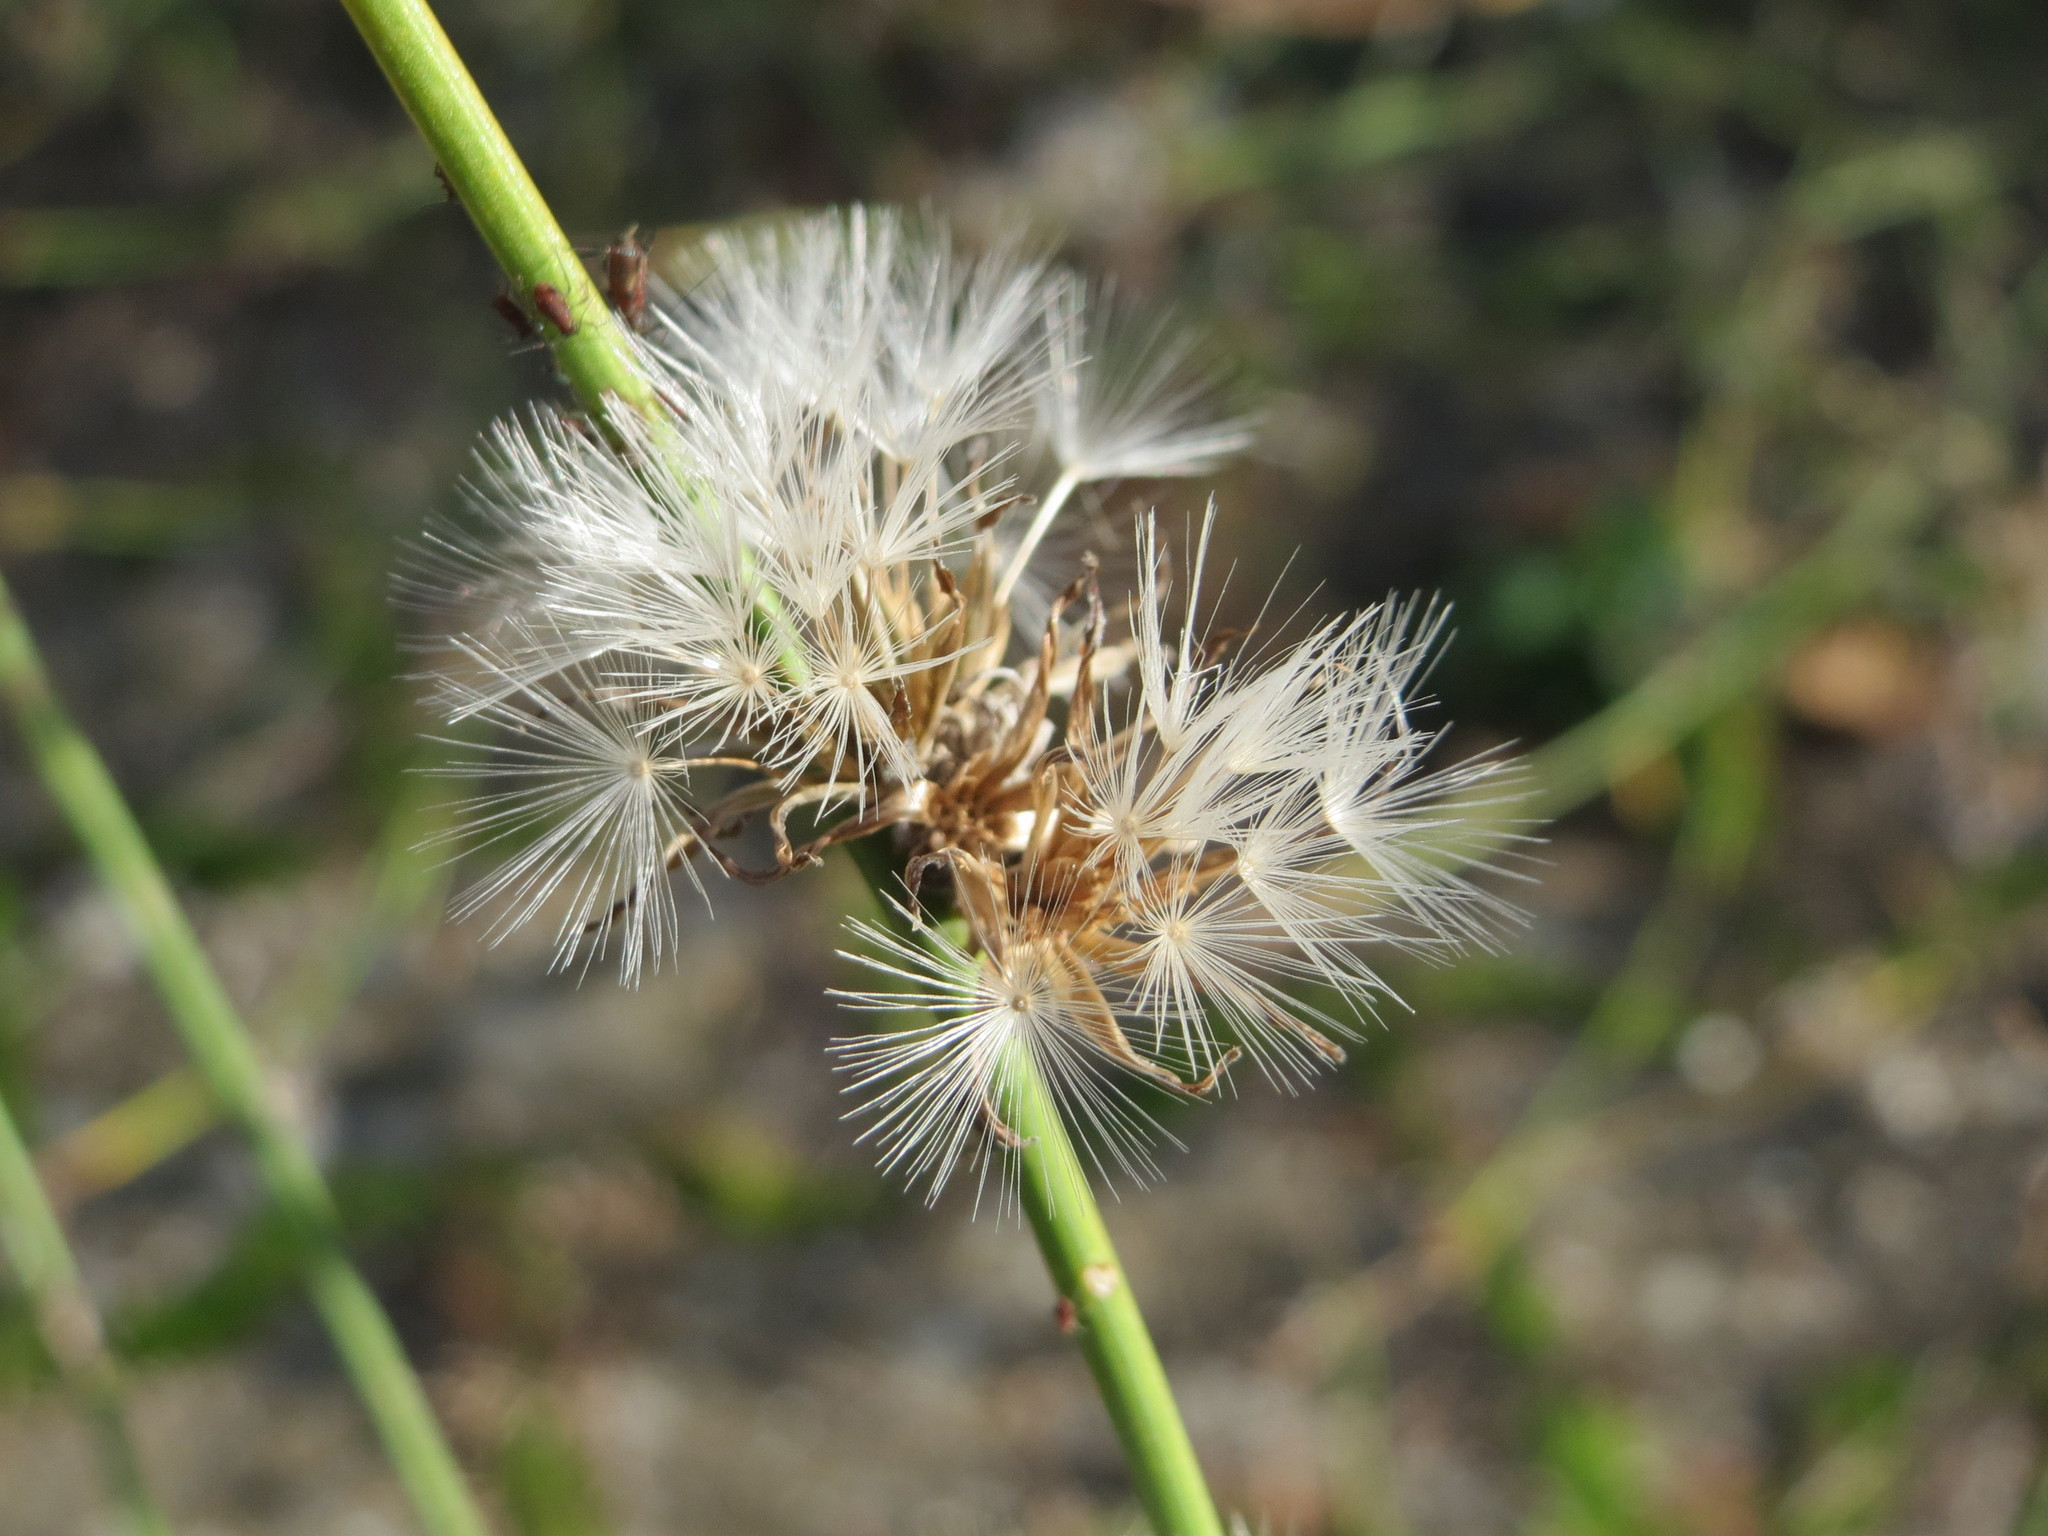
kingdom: Plantae
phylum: Tracheophyta
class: Magnoliopsida
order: Asterales
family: Asteraceae
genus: Chondrilla
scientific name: Chondrilla juncea
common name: Skeleton weed
